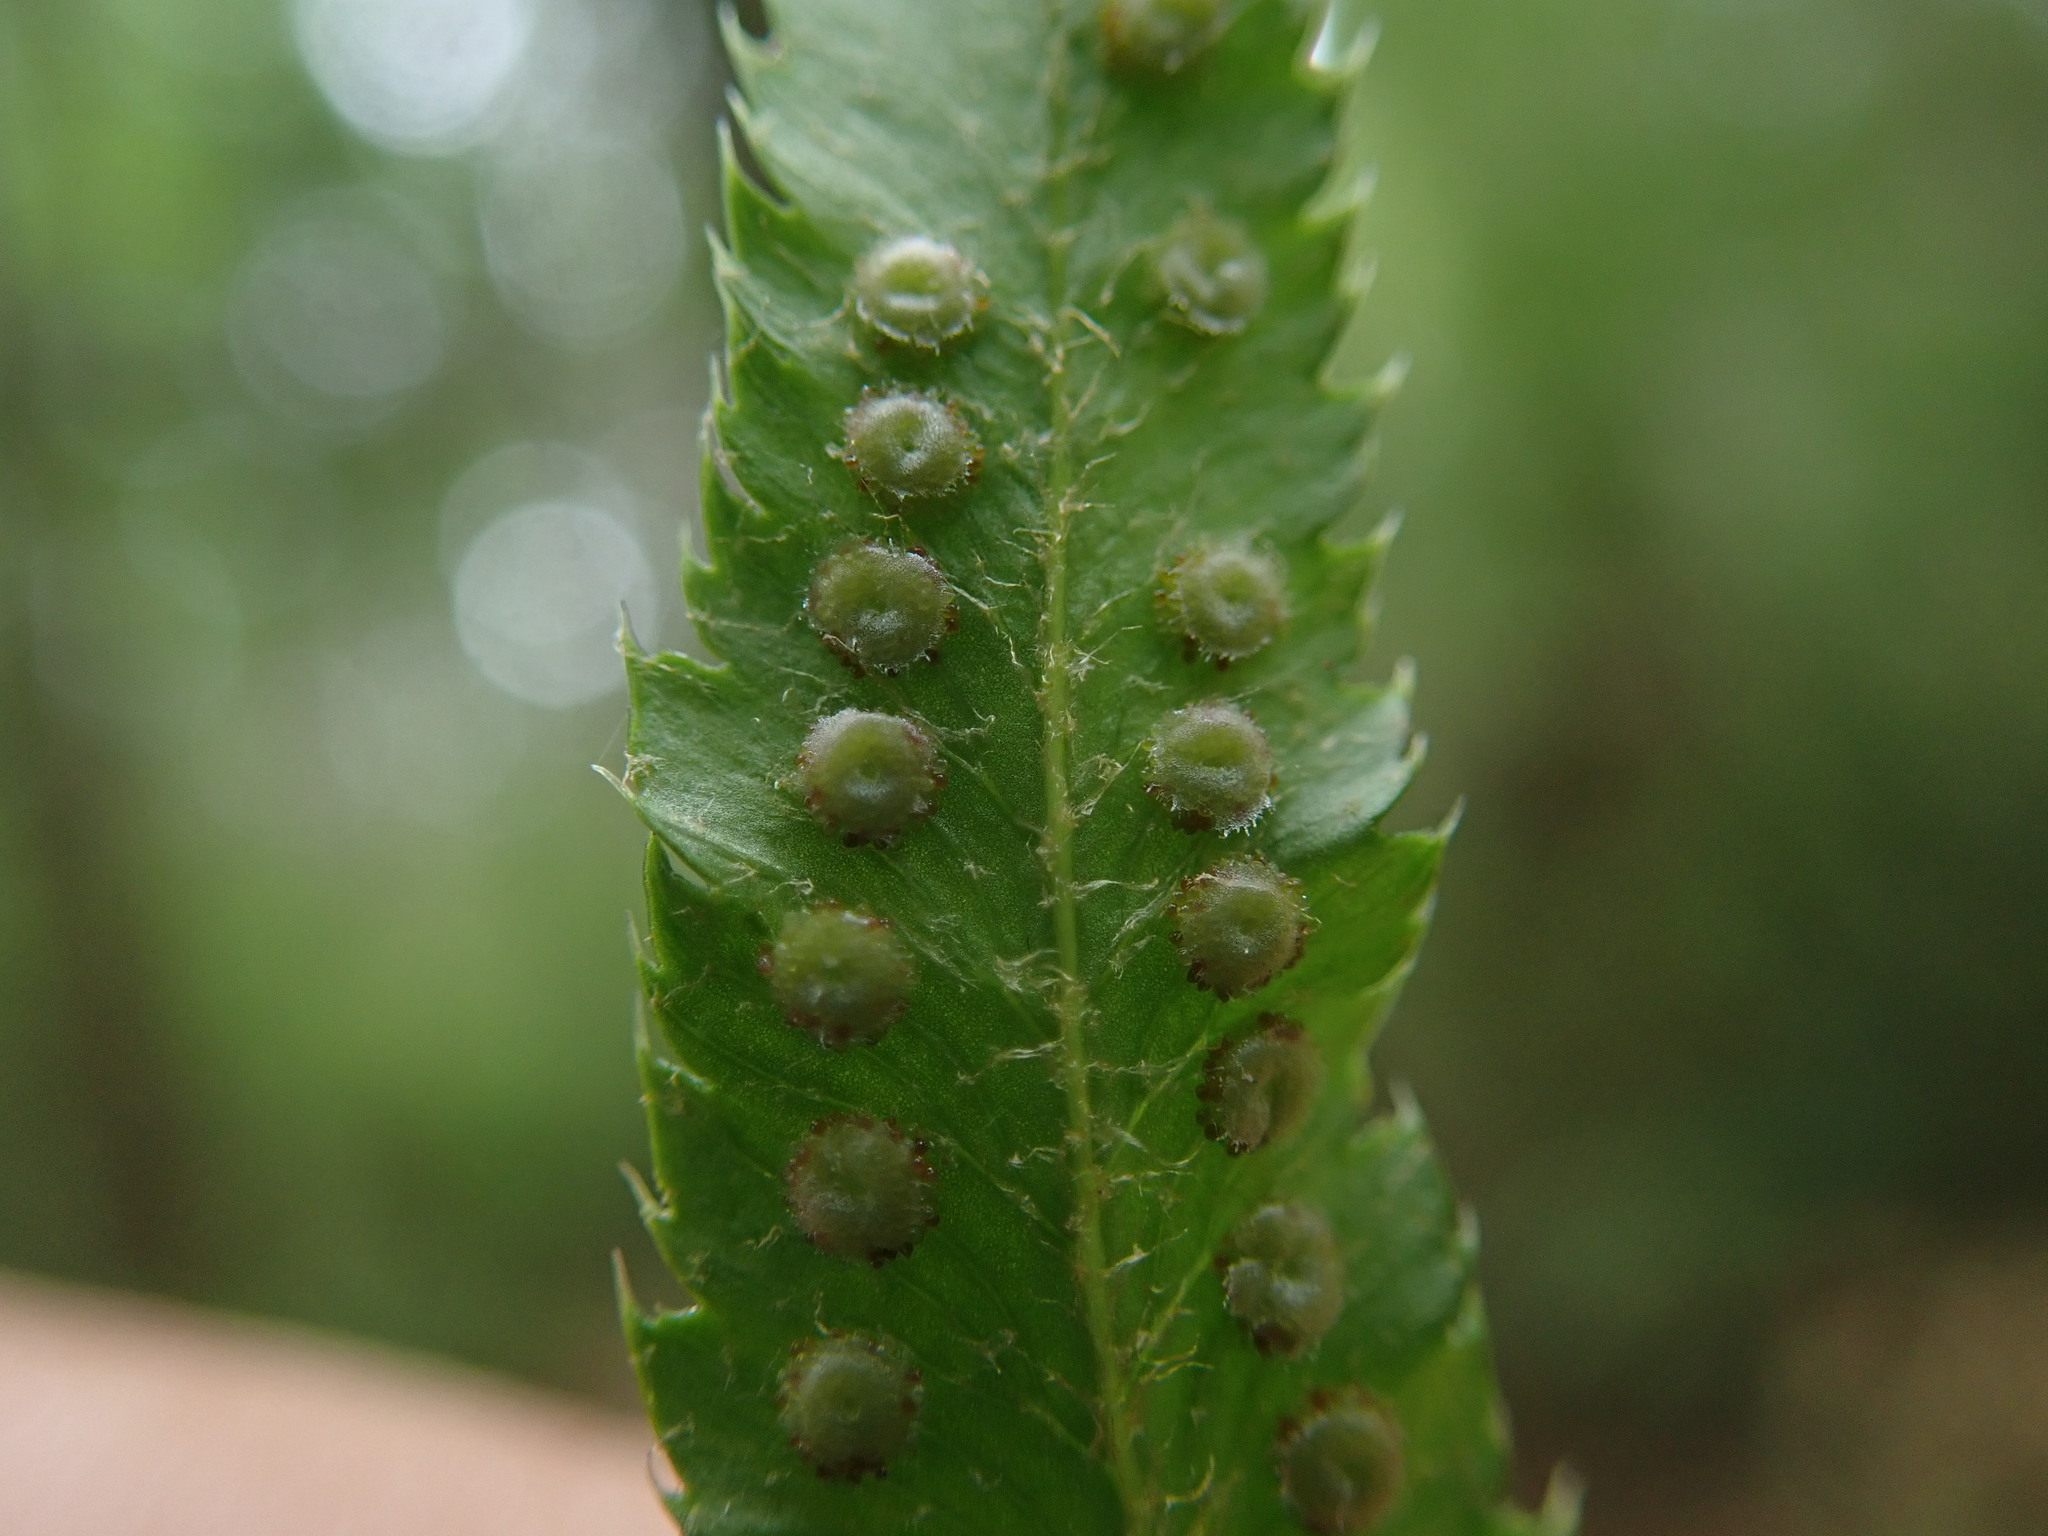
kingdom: Plantae
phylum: Tracheophyta
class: Polypodiopsida
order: Polypodiales
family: Dryopteridaceae
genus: Polystichum
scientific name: Polystichum munitum
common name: Western sword-fern
